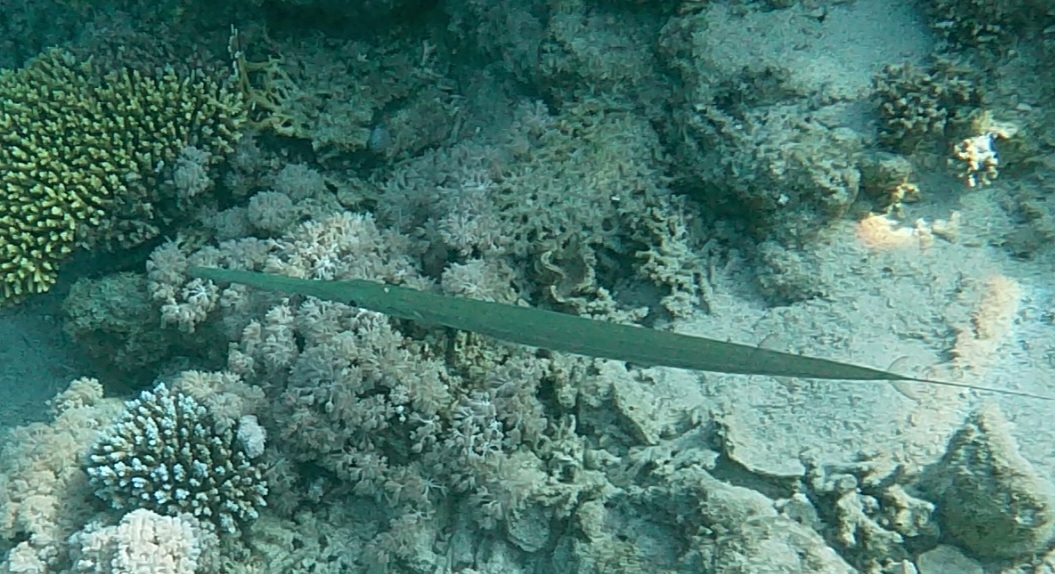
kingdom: Animalia
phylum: Chordata
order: Syngnathiformes
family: Fistulariidae
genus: Fistularia
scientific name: Fistularia commersonii
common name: Bluespotted cornetfish
